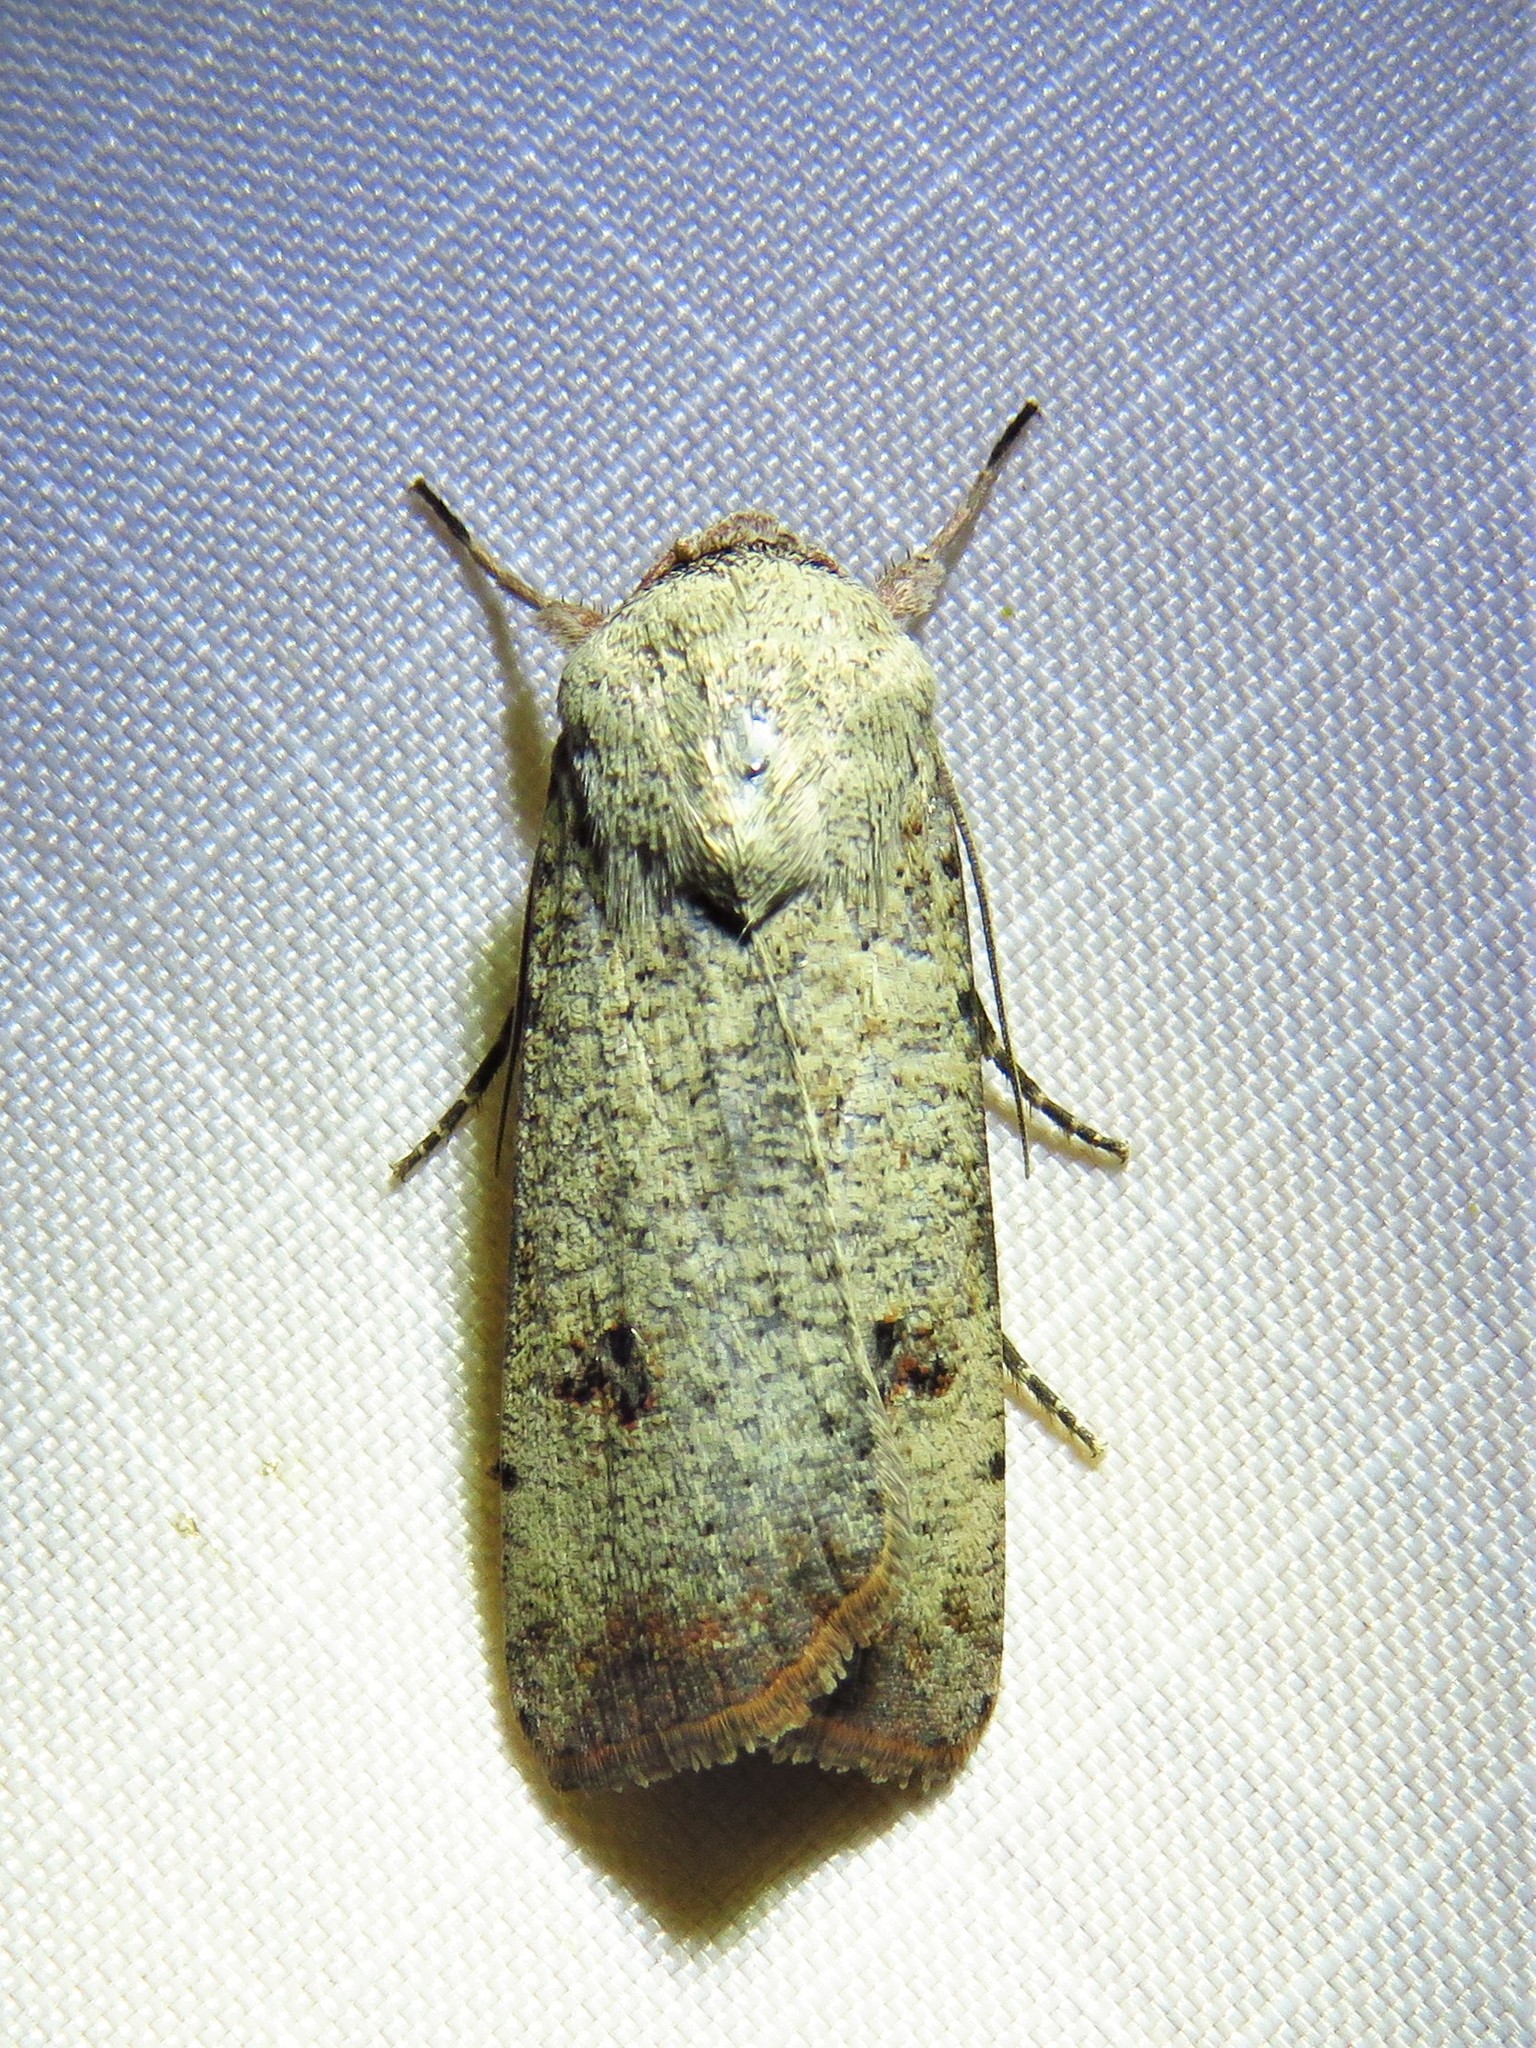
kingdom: Animalia
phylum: Arthropoda
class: Insecta
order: Lepidoptera
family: Noctuidae
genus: Anicla
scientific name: Anicla infecta
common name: Green cutworm
